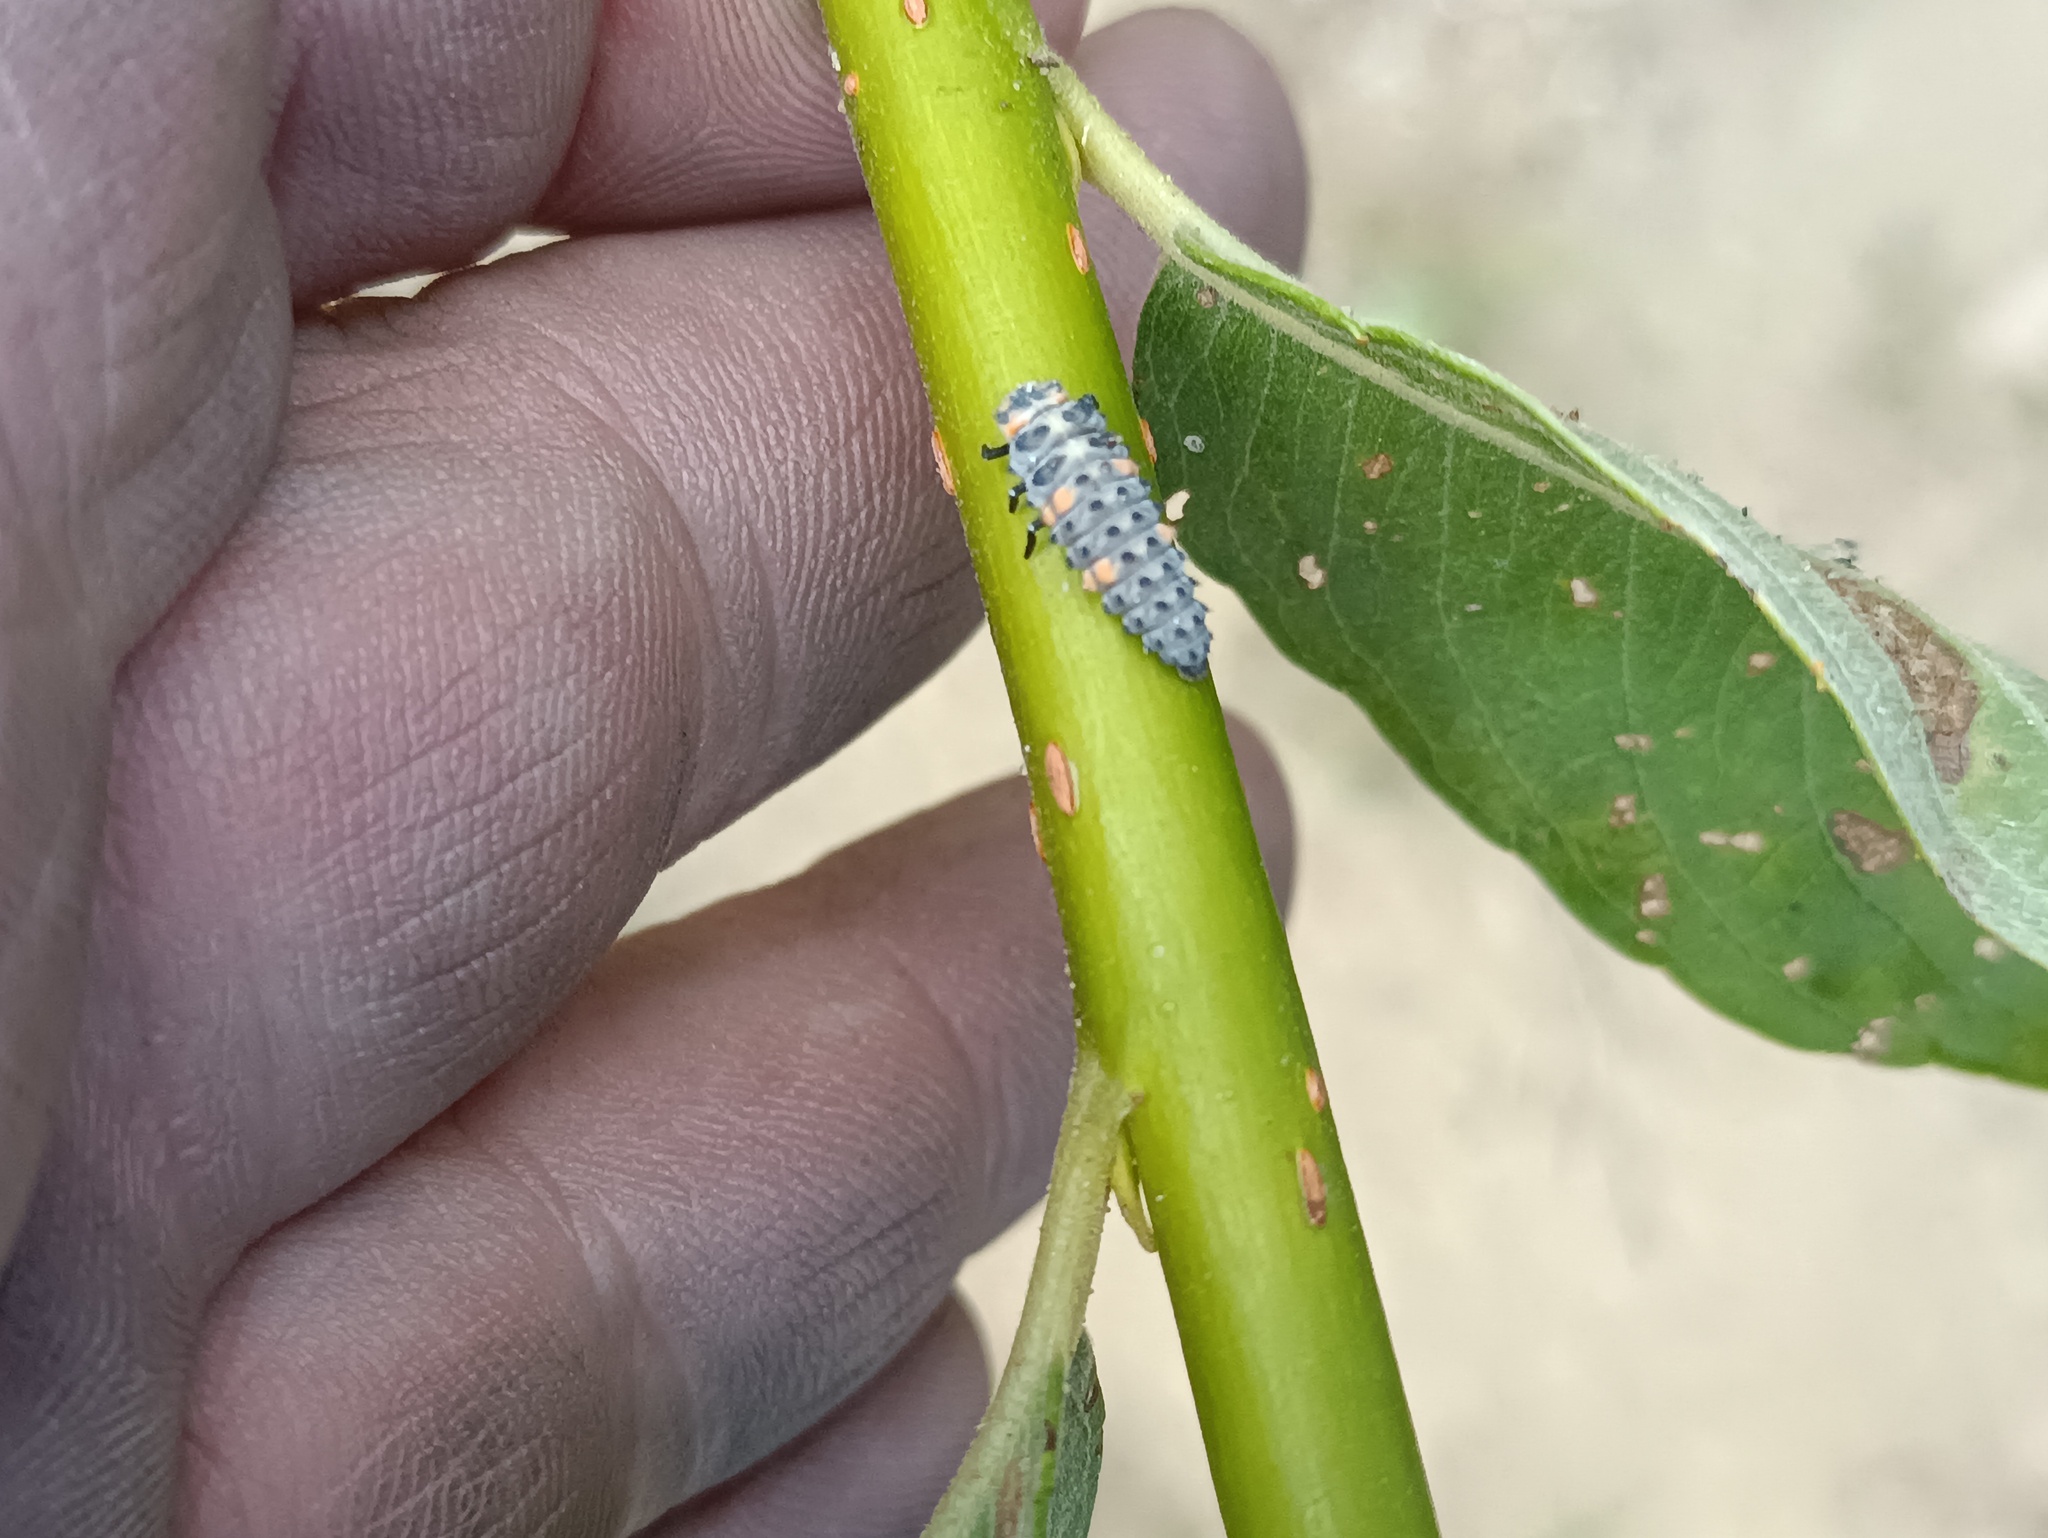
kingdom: Animalia
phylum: Arthropoda
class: Insecta
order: Coleoptera
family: Coccinellidae
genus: Coccinella
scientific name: Coccinella septempunctata
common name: Sevenspotted lady beetle
